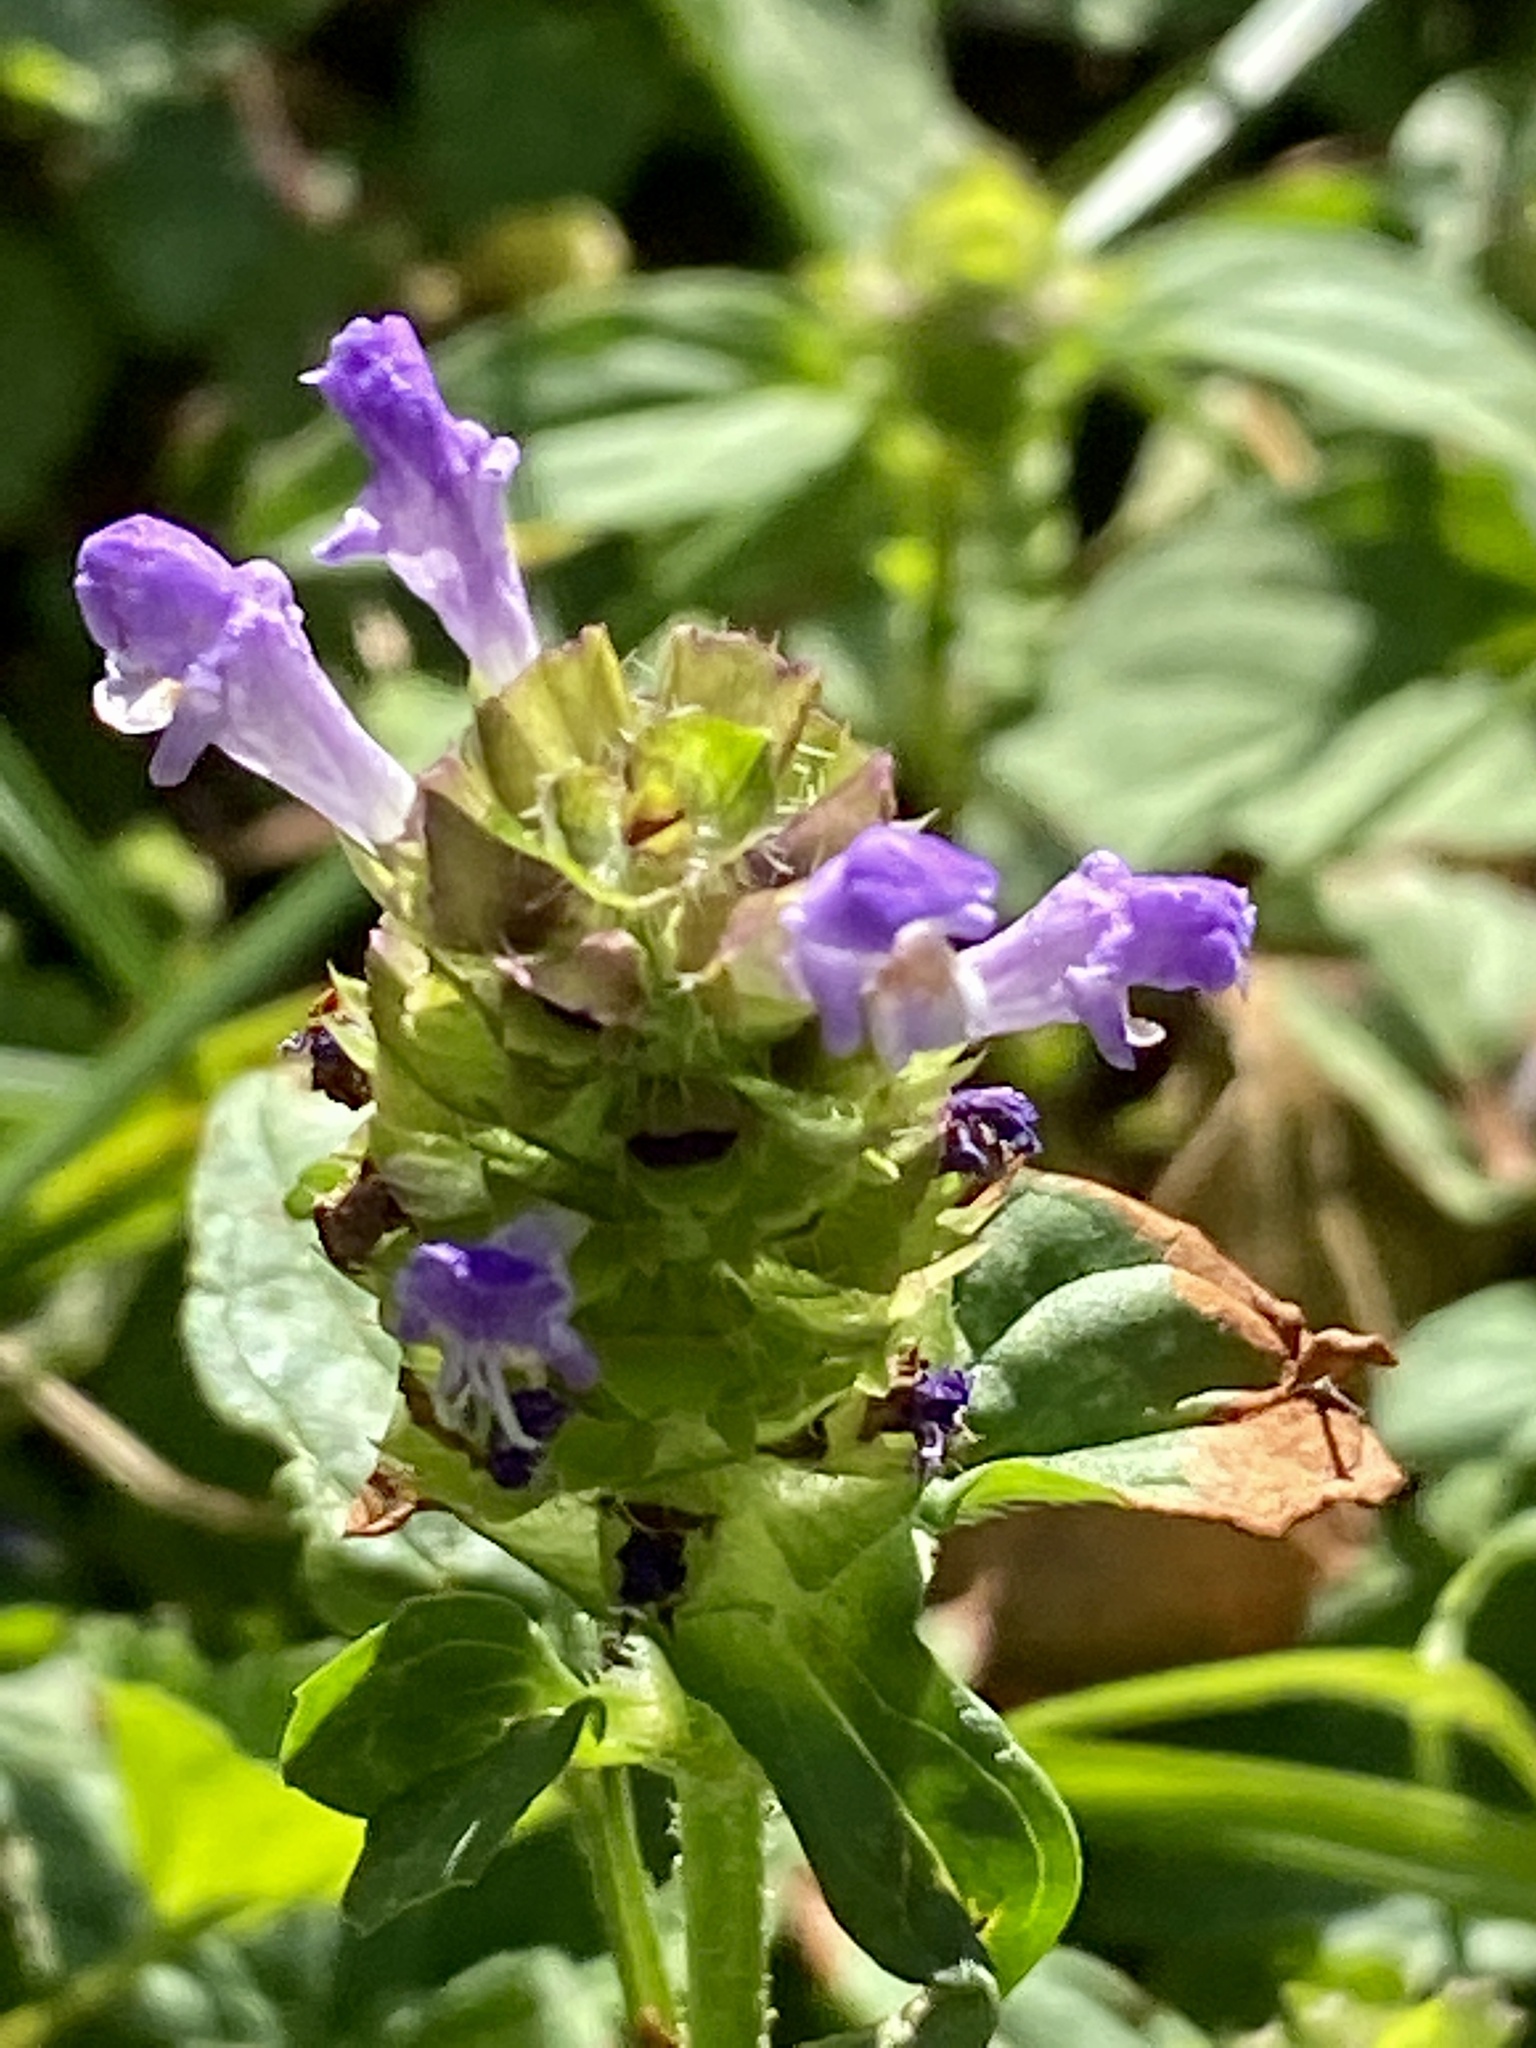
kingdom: Plantae
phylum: Tracheophyta
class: Magnoliopsida
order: Lamiales
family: Lamiaceae
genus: Prunella
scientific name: Prunella vulgaris
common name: Heal-all
